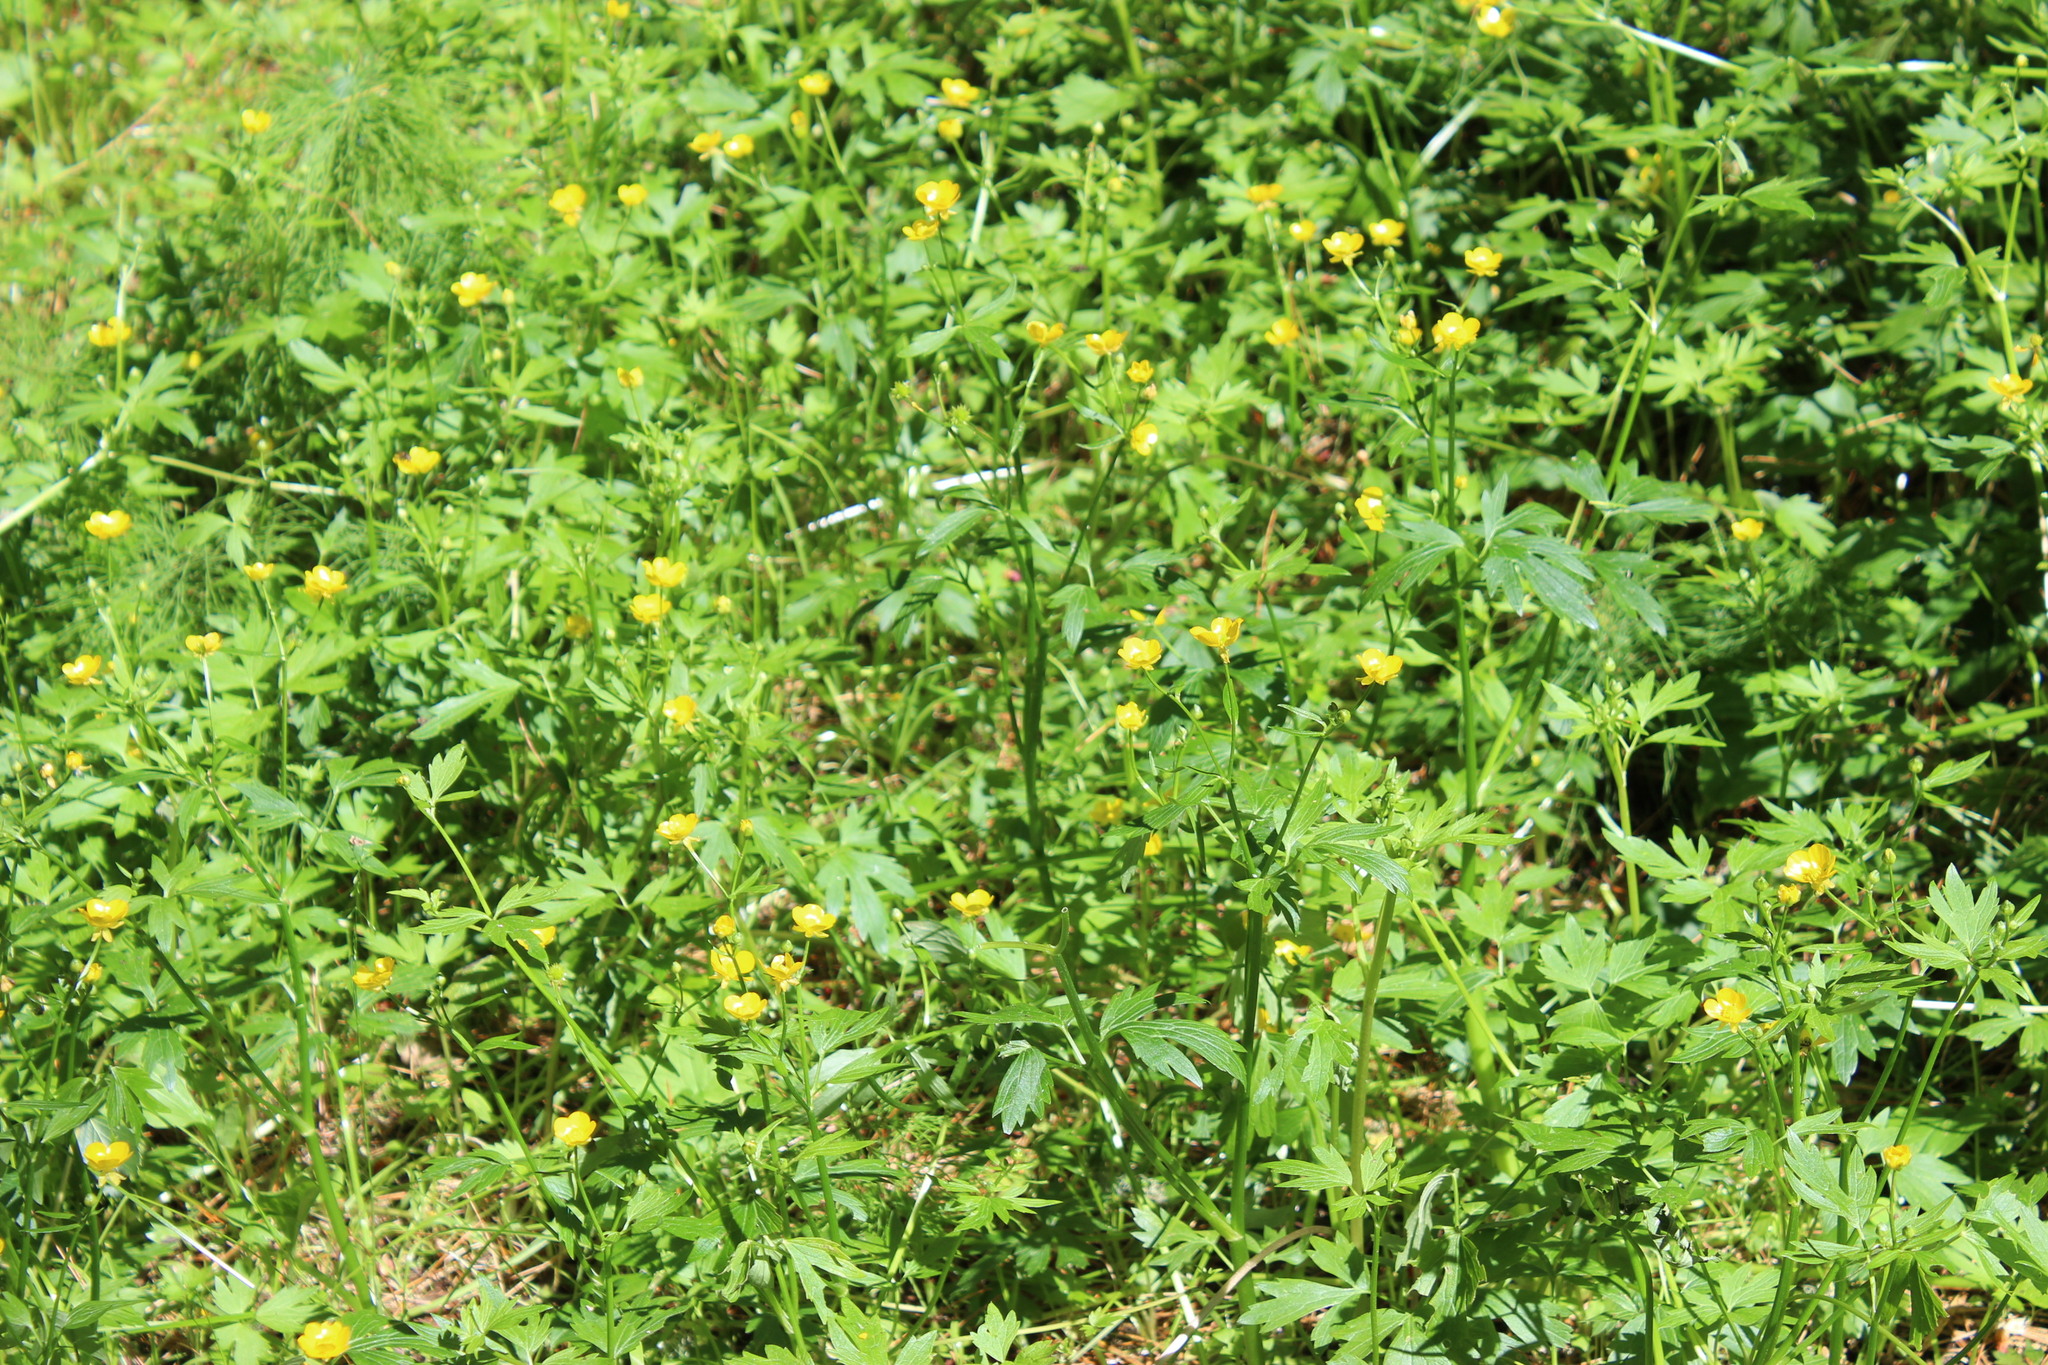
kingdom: Plantae
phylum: Tracheophyta
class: Magnoliopsida
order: Ranunculales
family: Ranunculaceae
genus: Ranunculus
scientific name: Ranunculus repens
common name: Creeping buttercup
